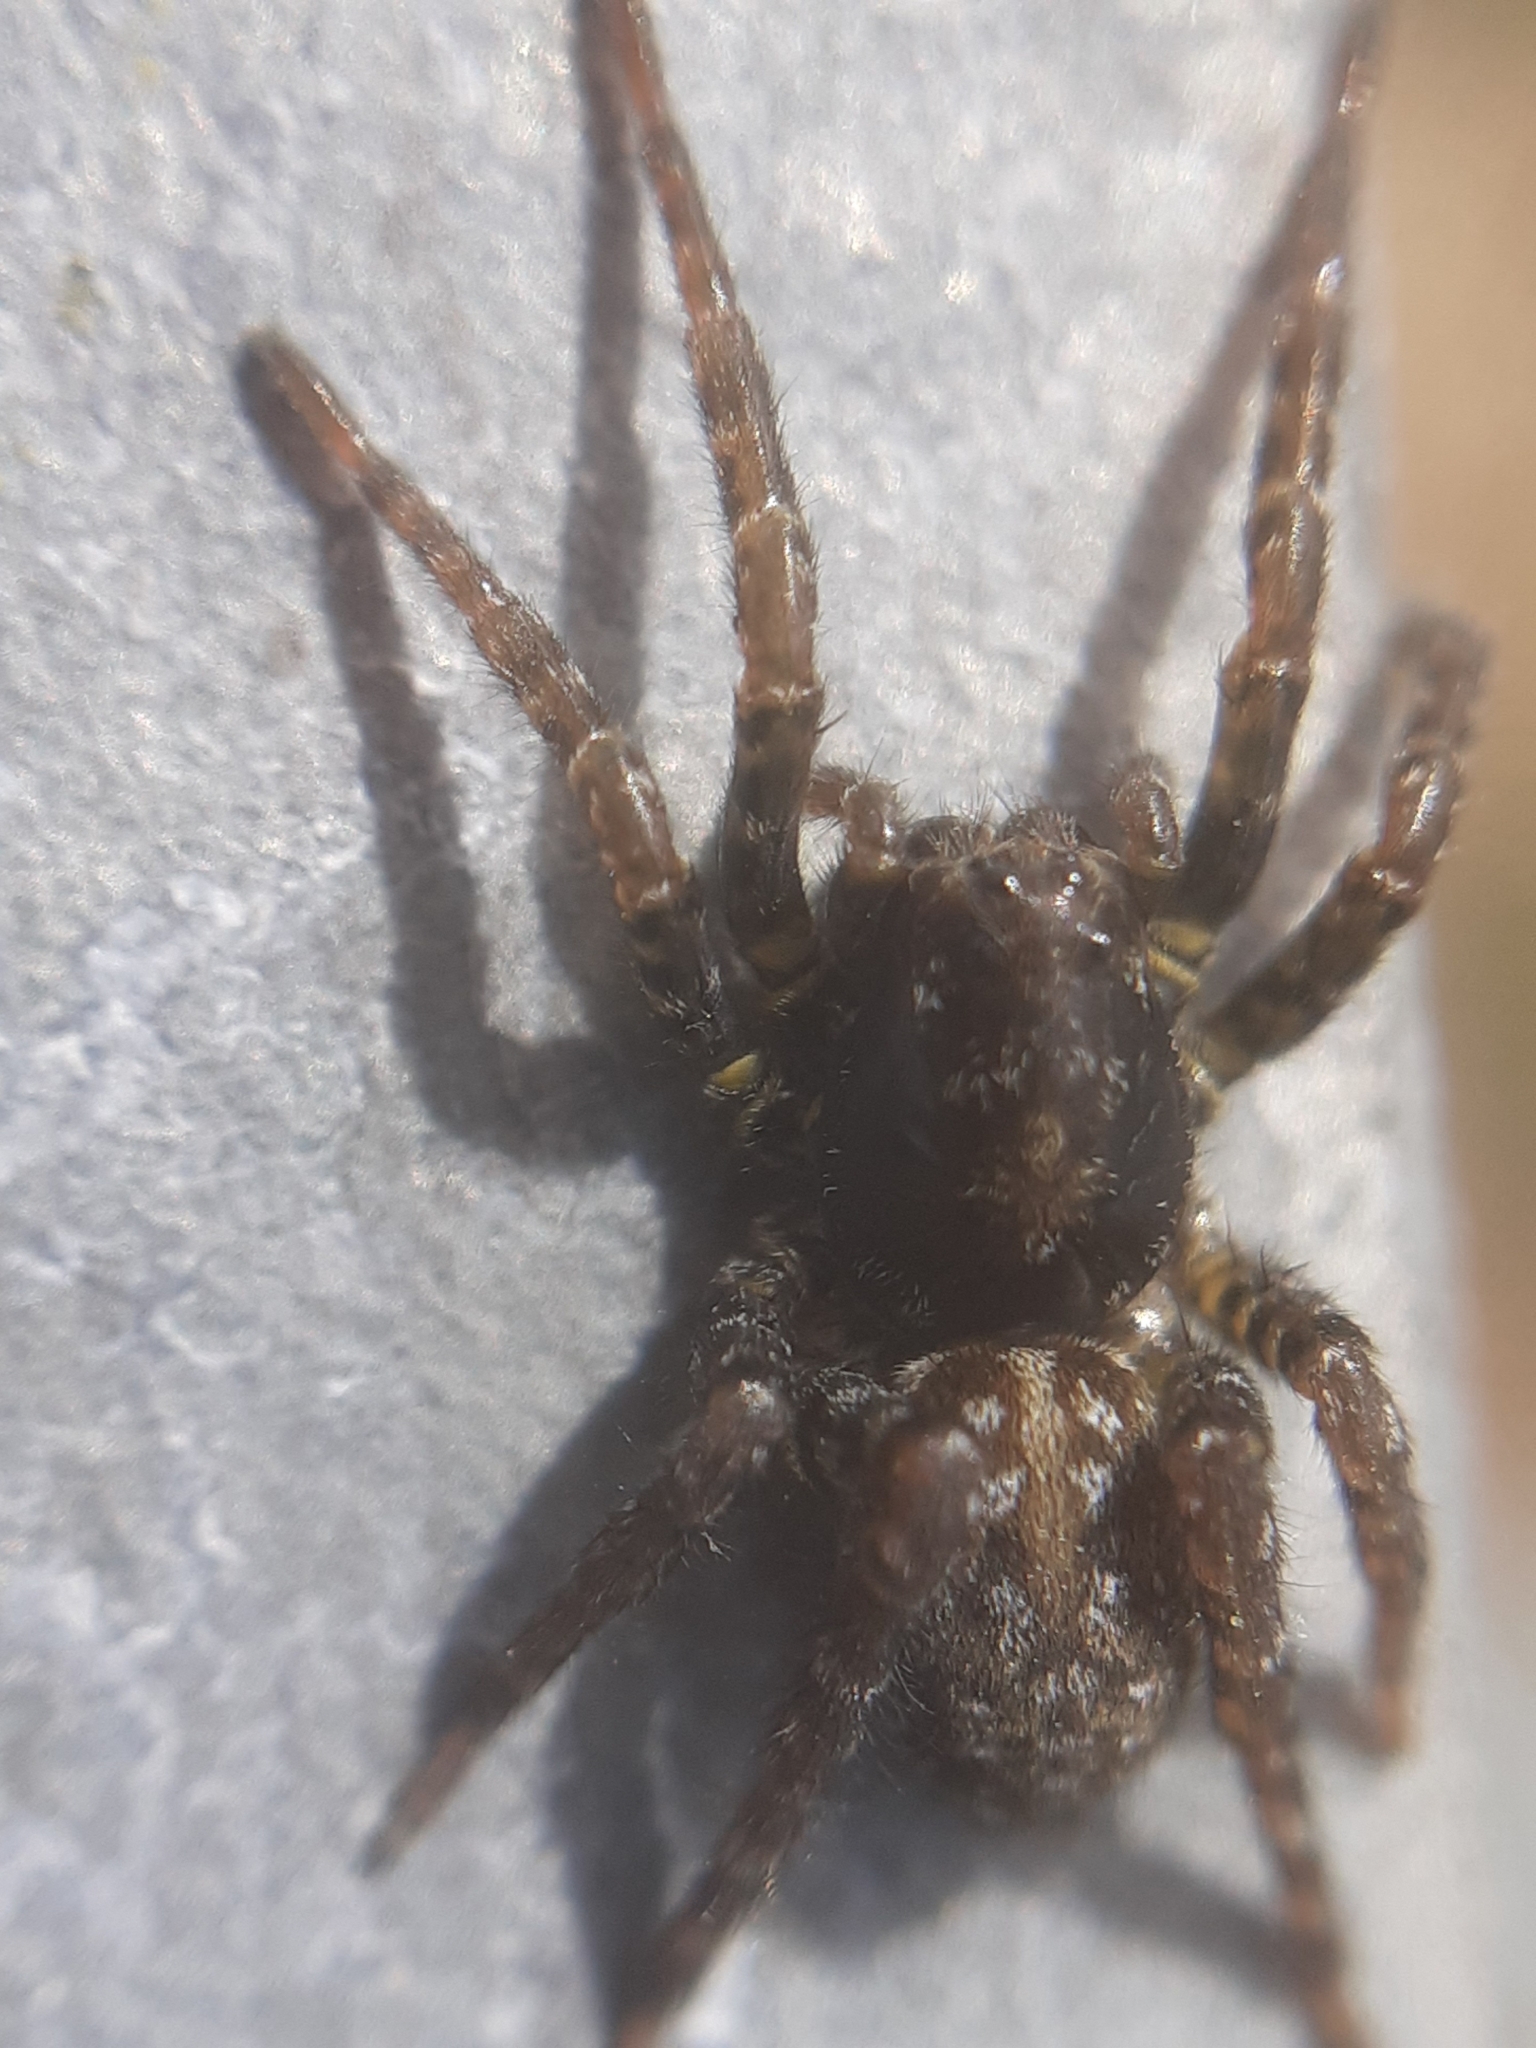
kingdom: Animalia
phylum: Arthropoda
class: Arachnida
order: Araneae
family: Lycosidae
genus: Arctosa
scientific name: Arctosa leopardus
